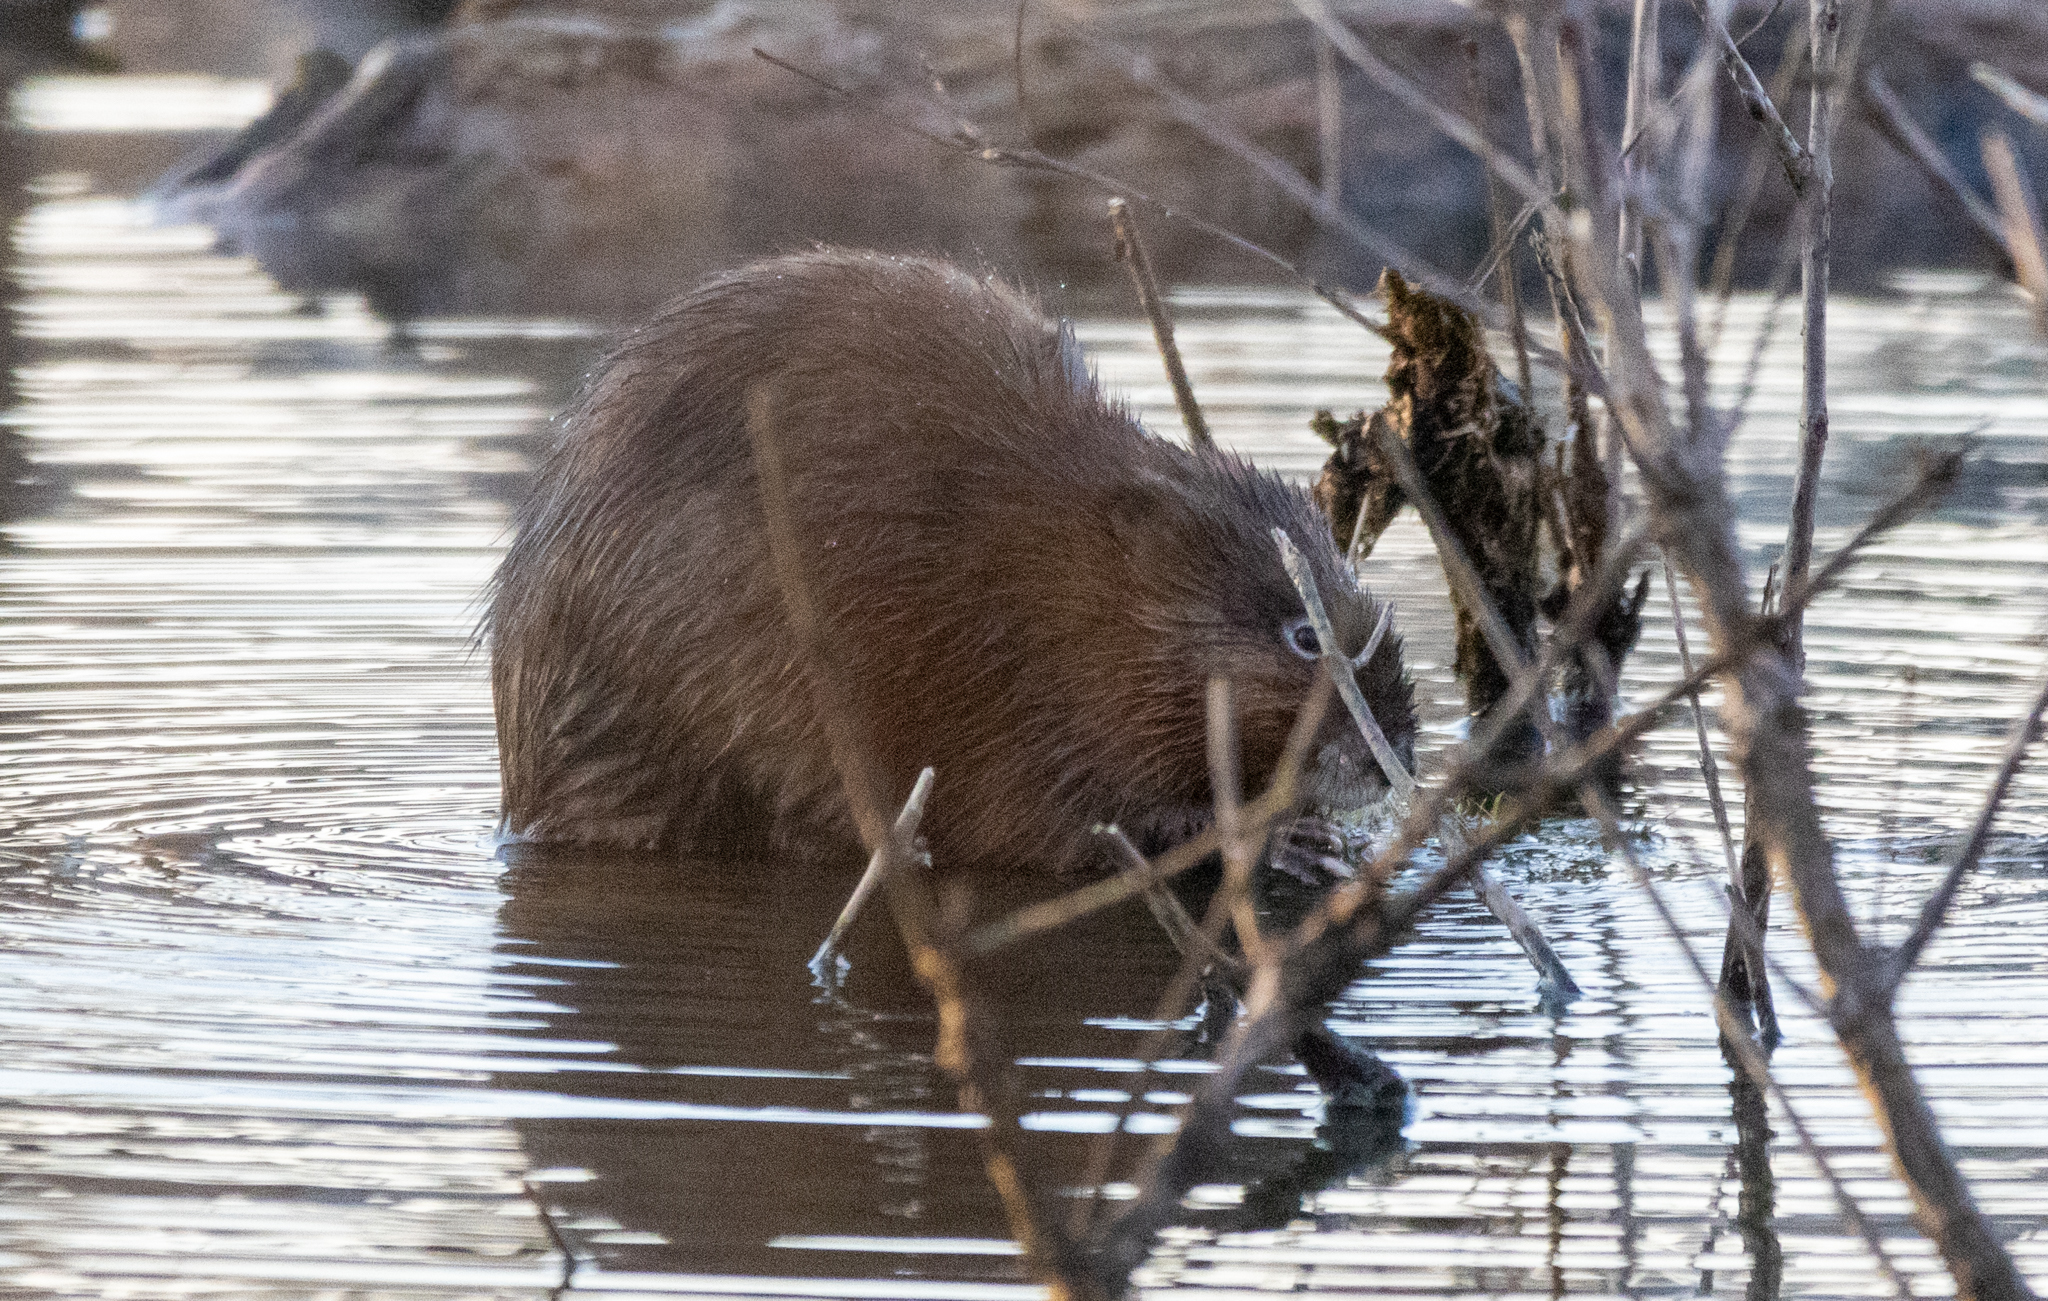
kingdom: Animalia
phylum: Chordata
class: Mammalia
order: Rodentia
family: Cricetidae
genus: Ondatra
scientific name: Ondatra zibethicus
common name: Muskrat
